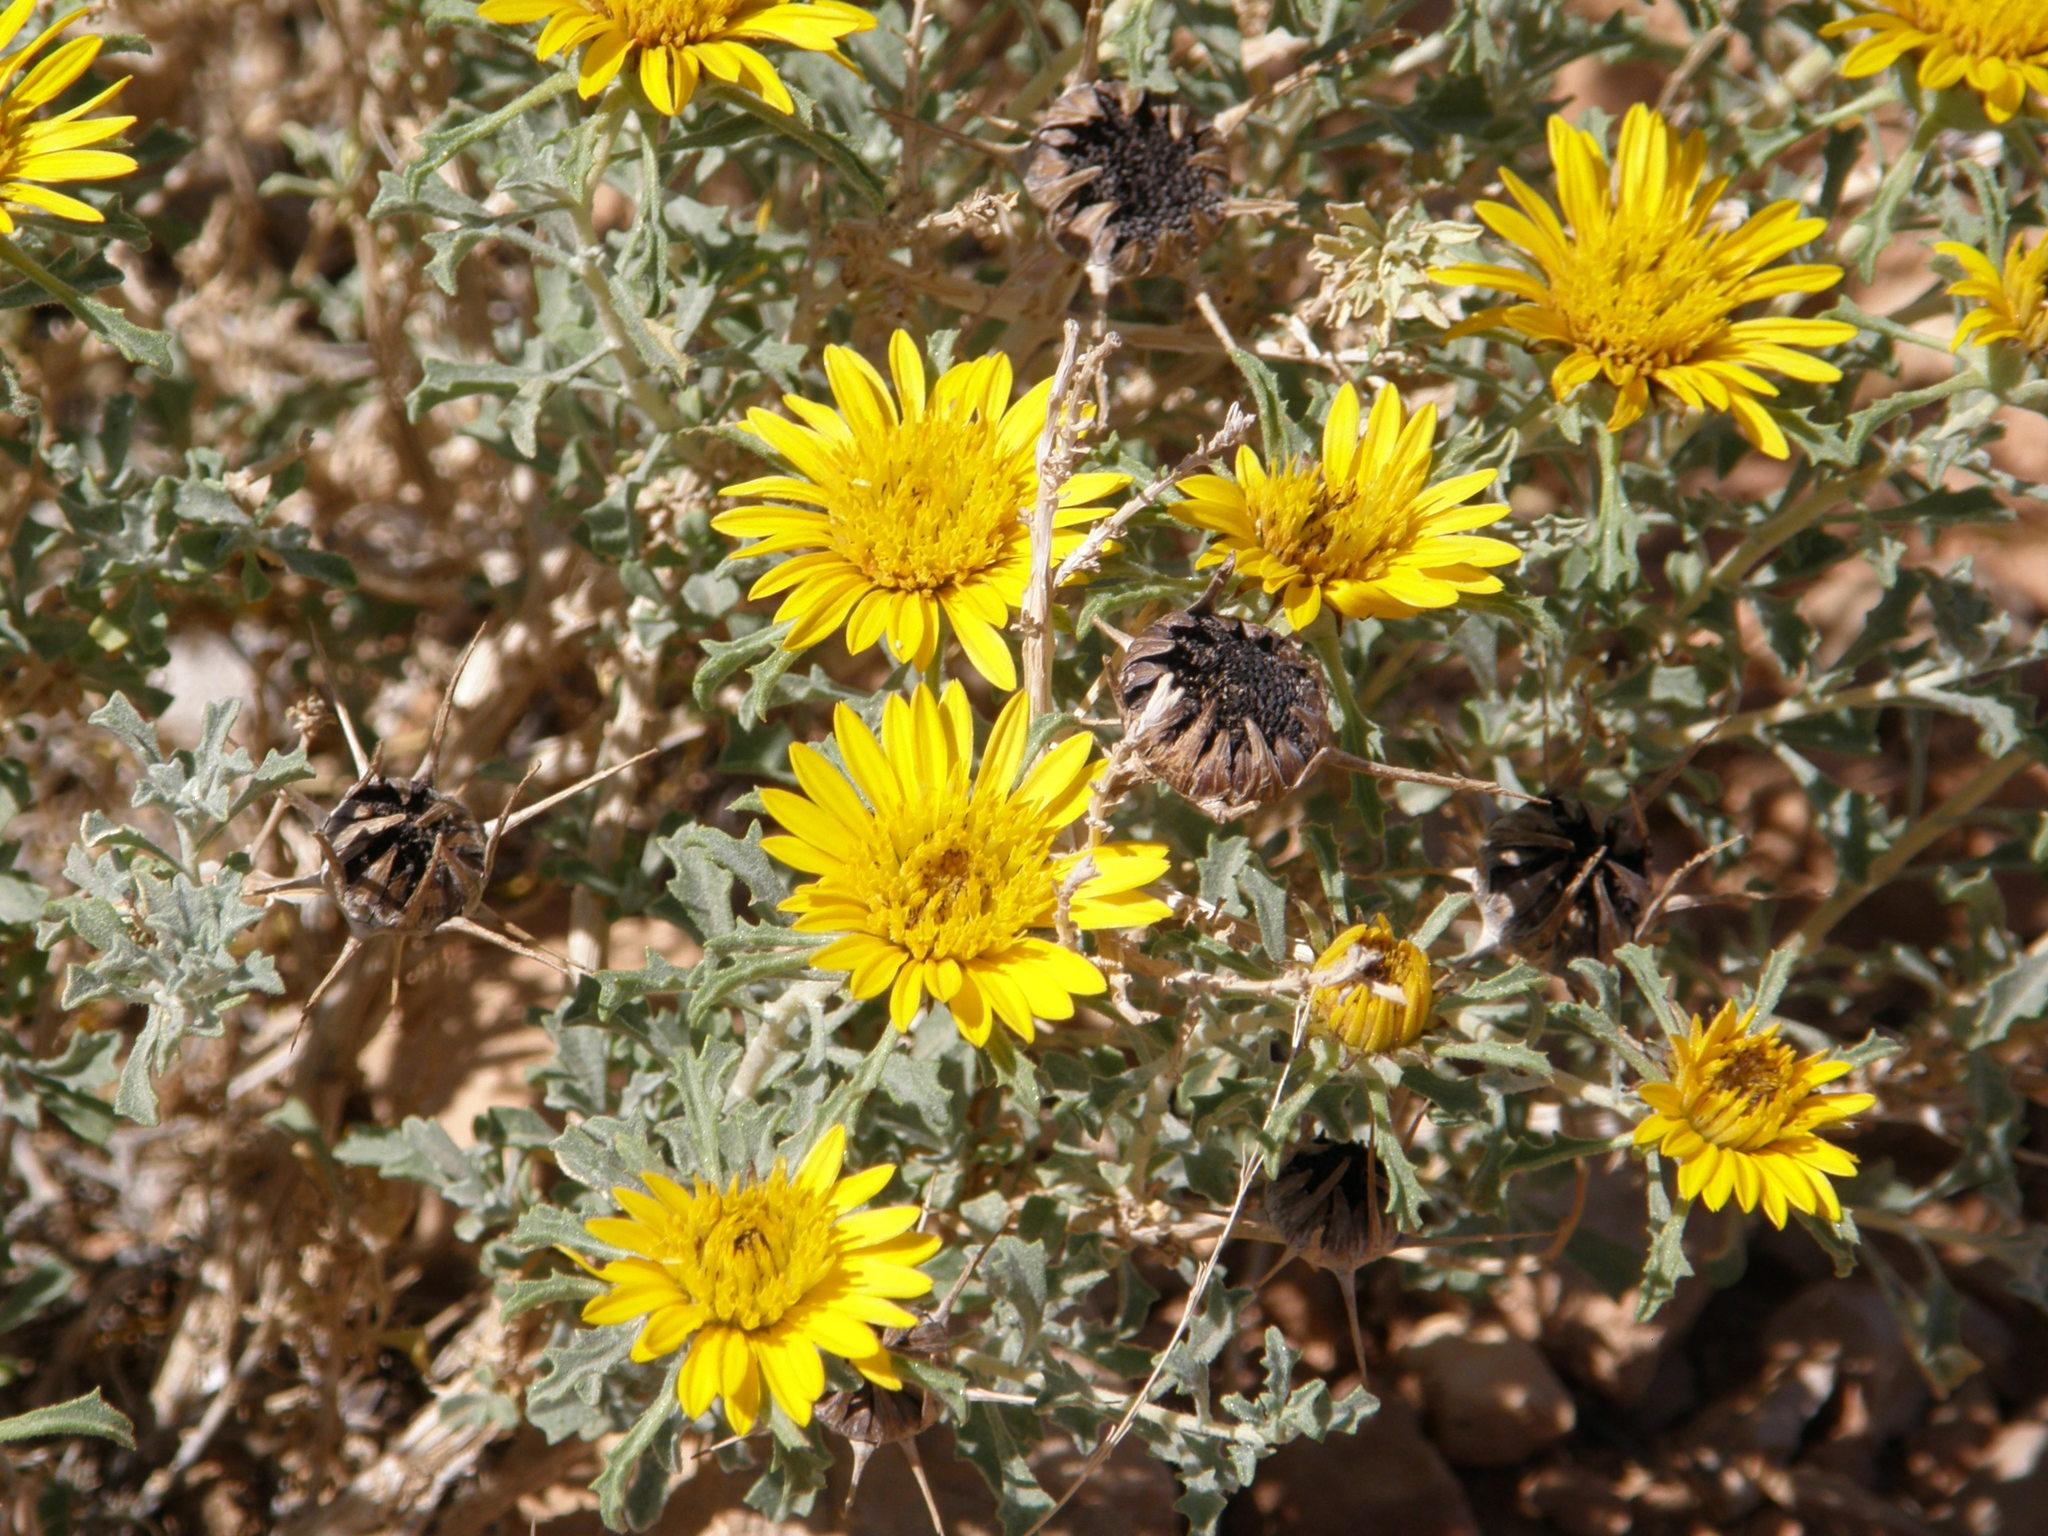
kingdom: Plantae
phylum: Tracheophyta
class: Magnoliopsida
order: Asterales
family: Asteraceae
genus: Anvillea
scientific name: Anvillea garcinii
